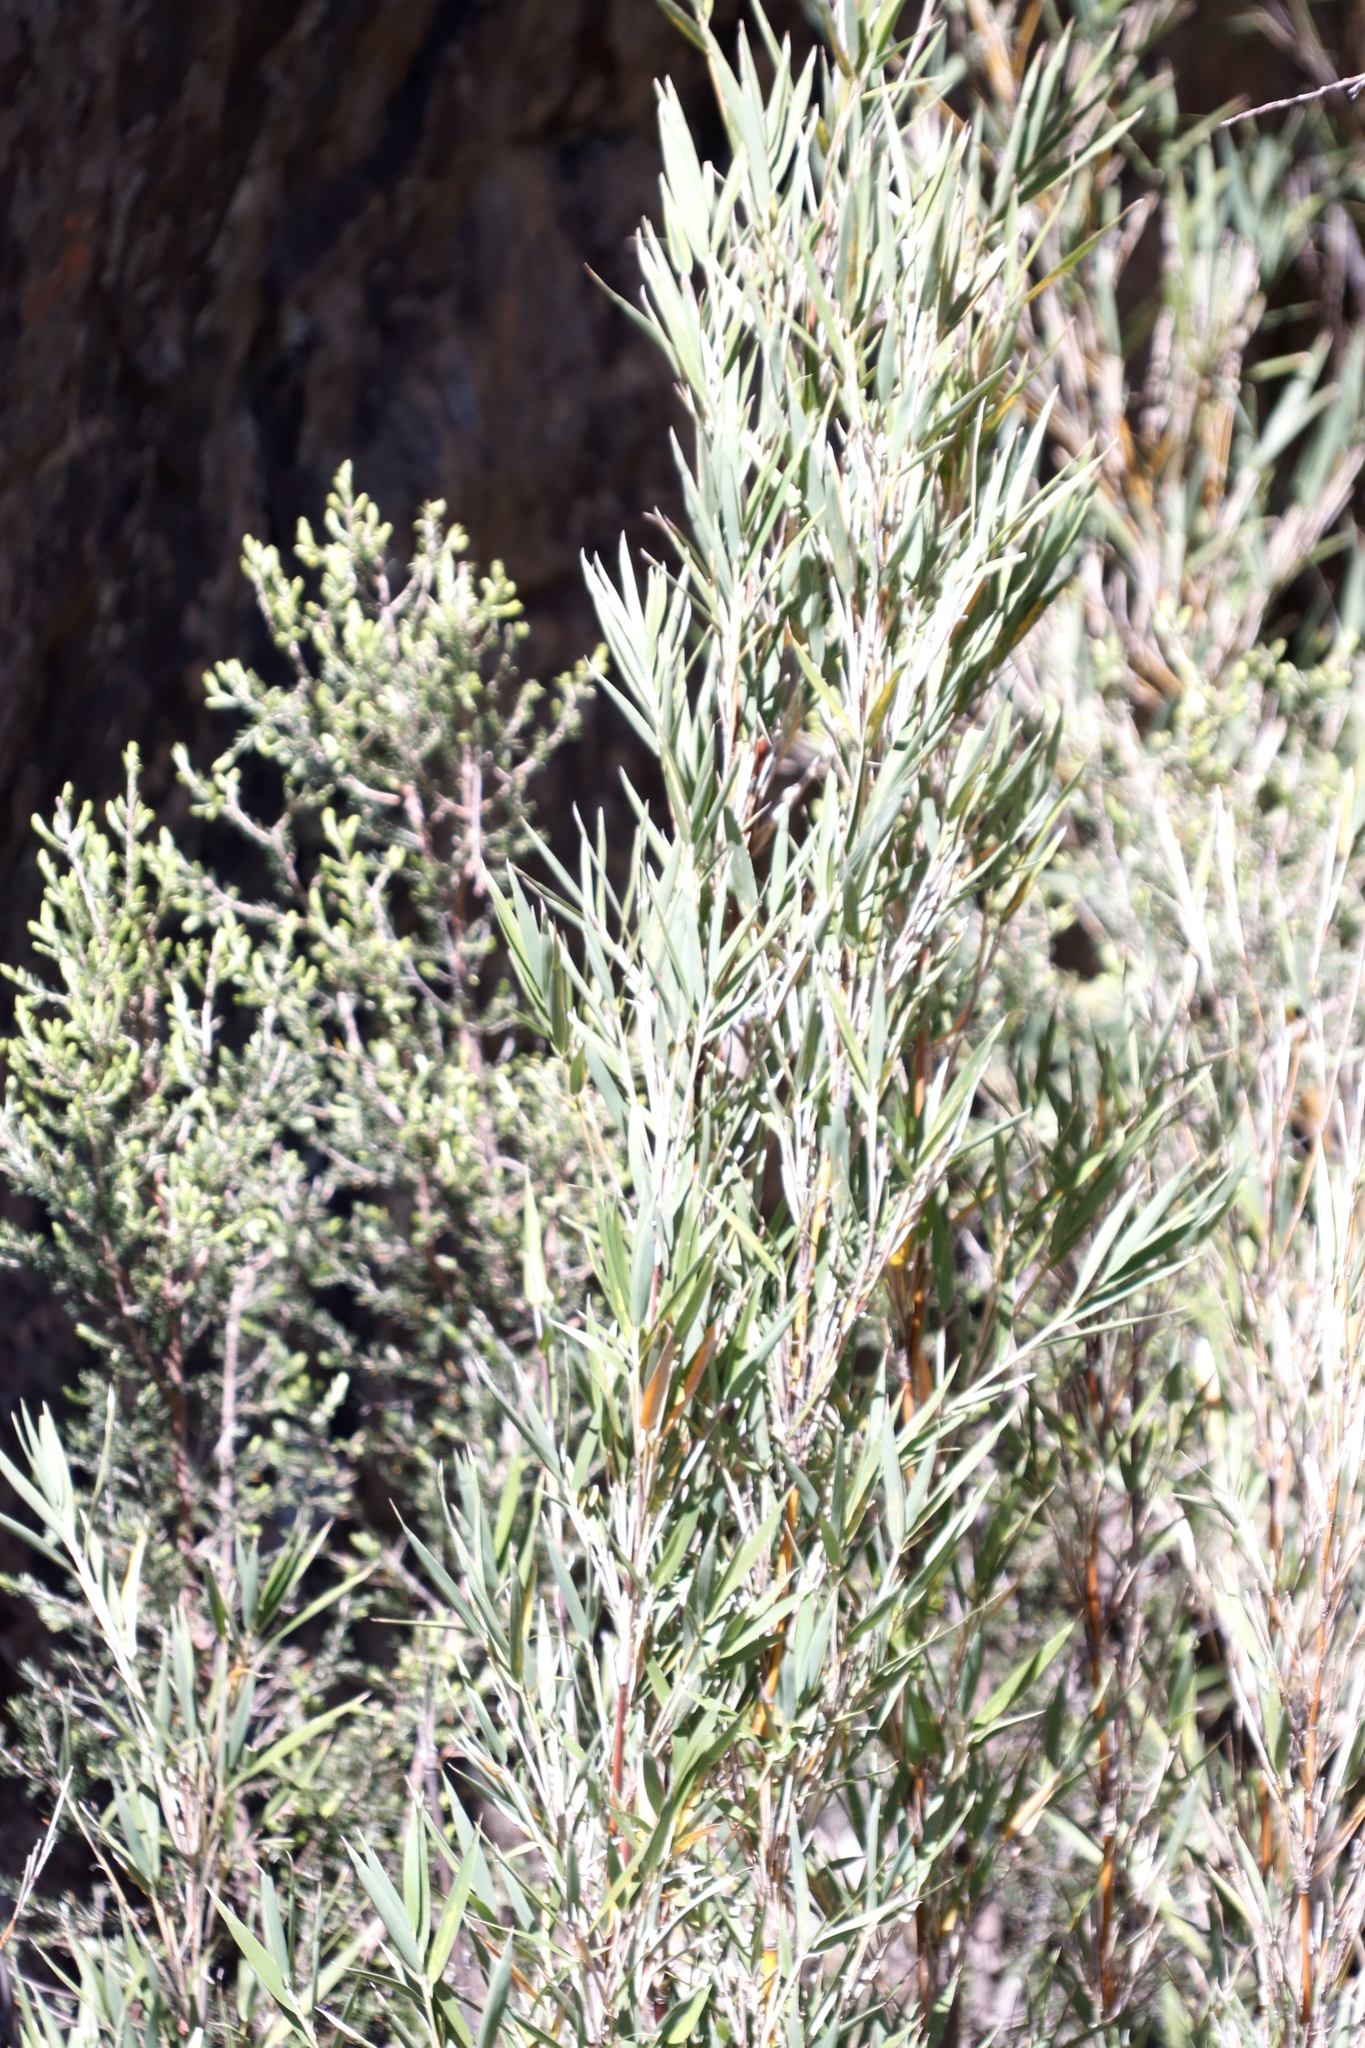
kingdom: Plantae
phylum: Tracheophyta
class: Liliopsida
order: Poales
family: Poaceae
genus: Bergbambos
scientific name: Bergbambos tessellata
